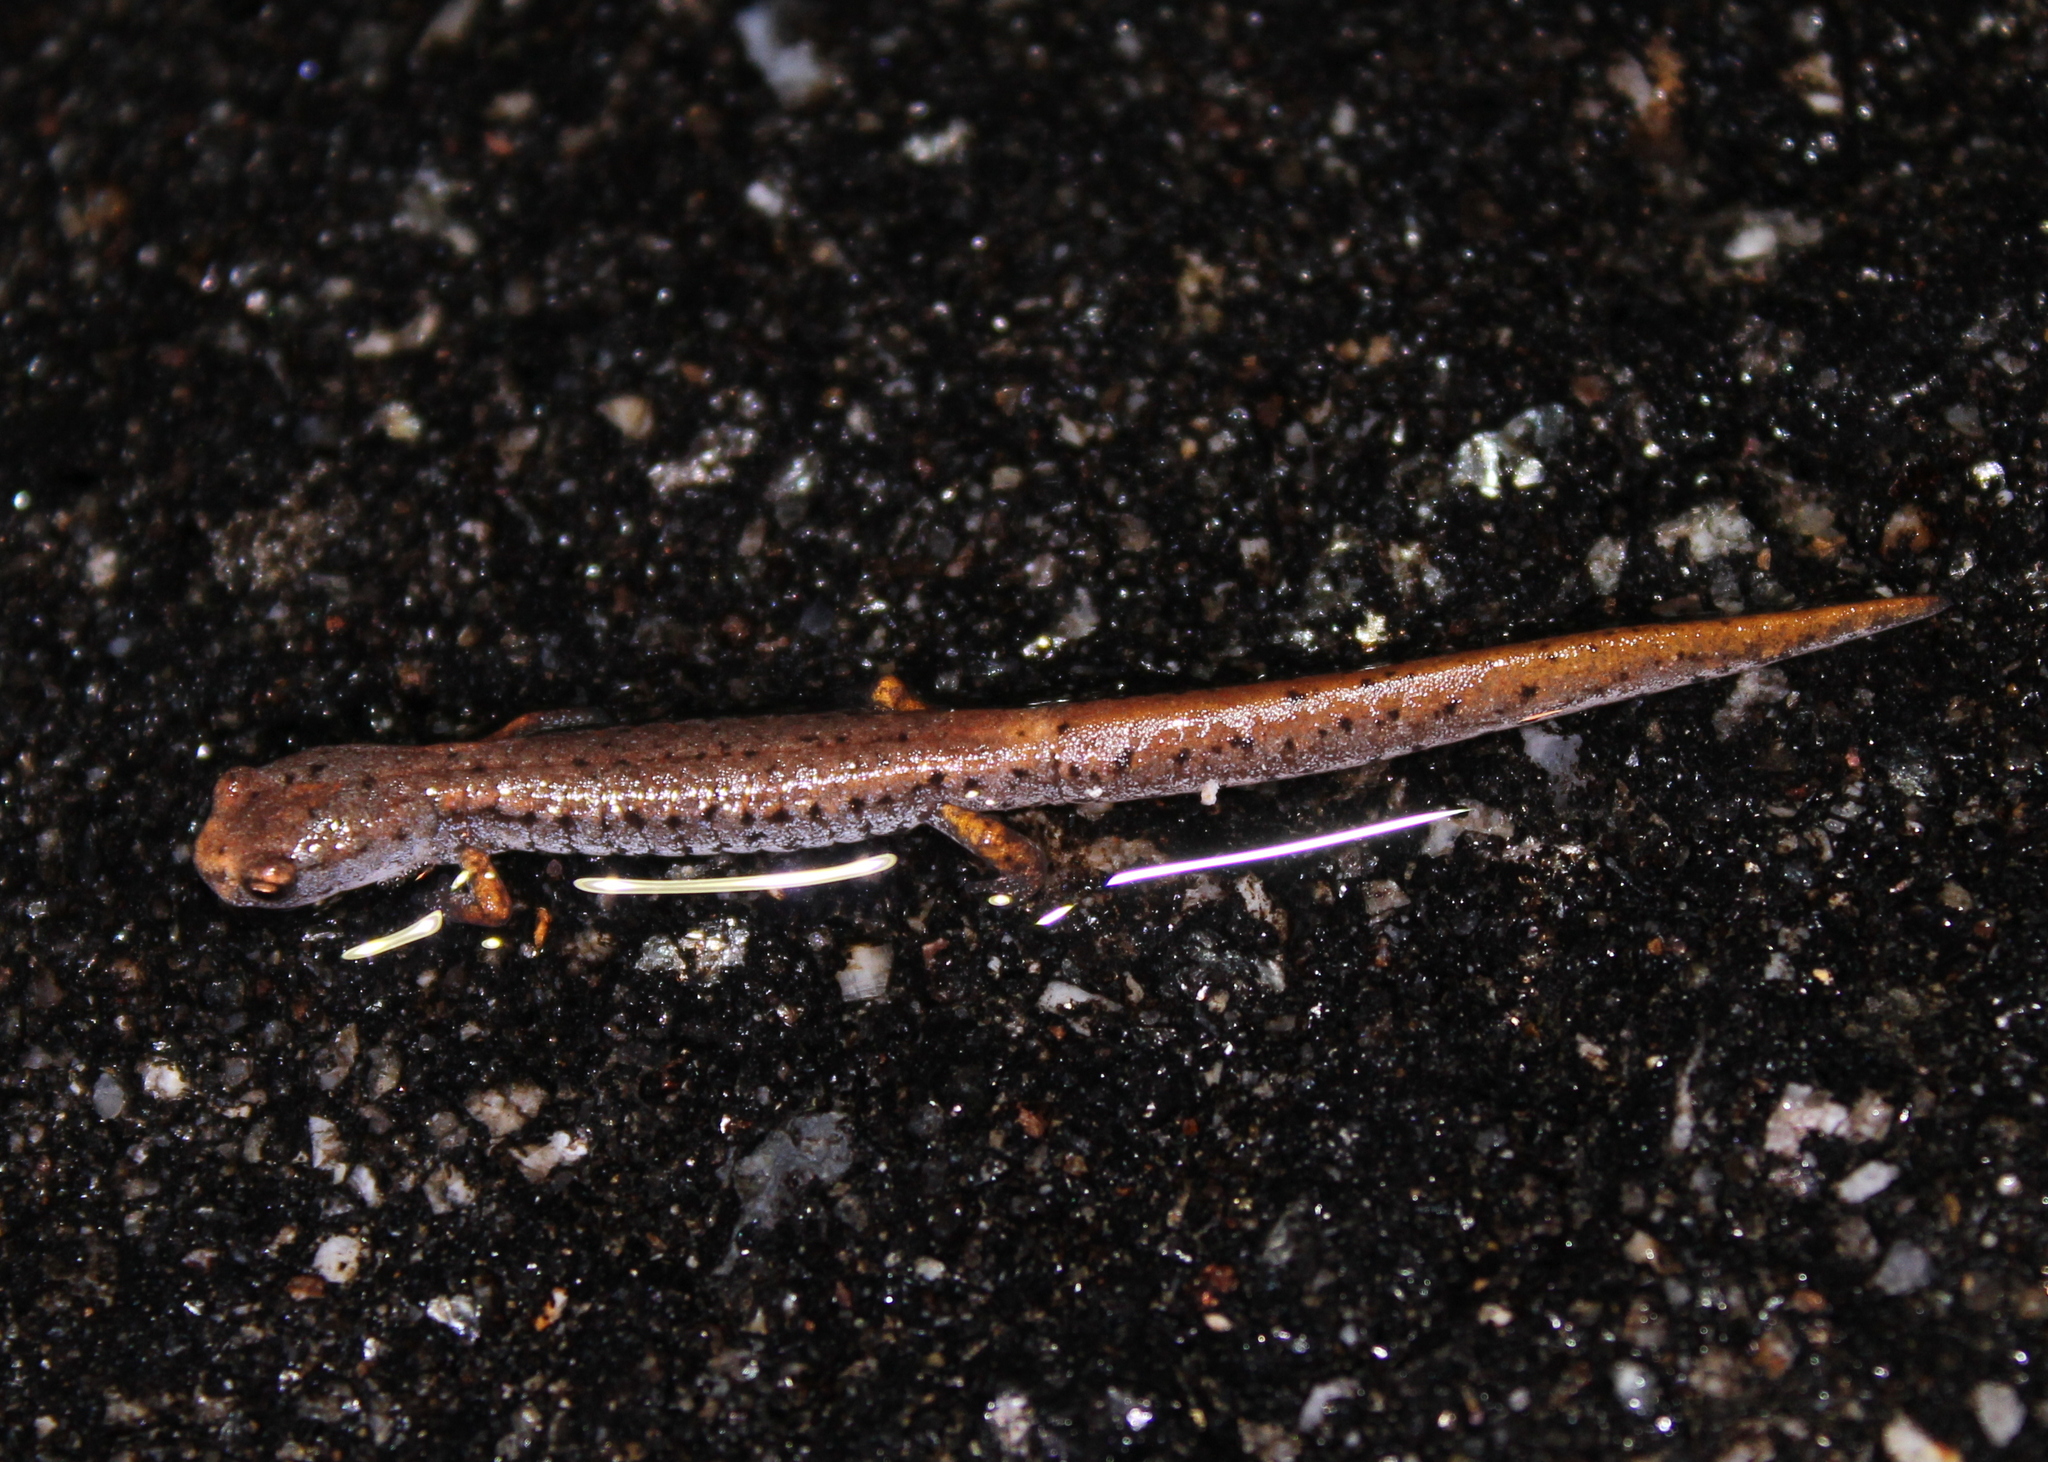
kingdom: Animalia
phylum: Chordata
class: Amphibia
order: Caudata
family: Plethodontidae
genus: Hemidactylium
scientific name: Hemidactylium scutatum
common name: Four-toed salamander
